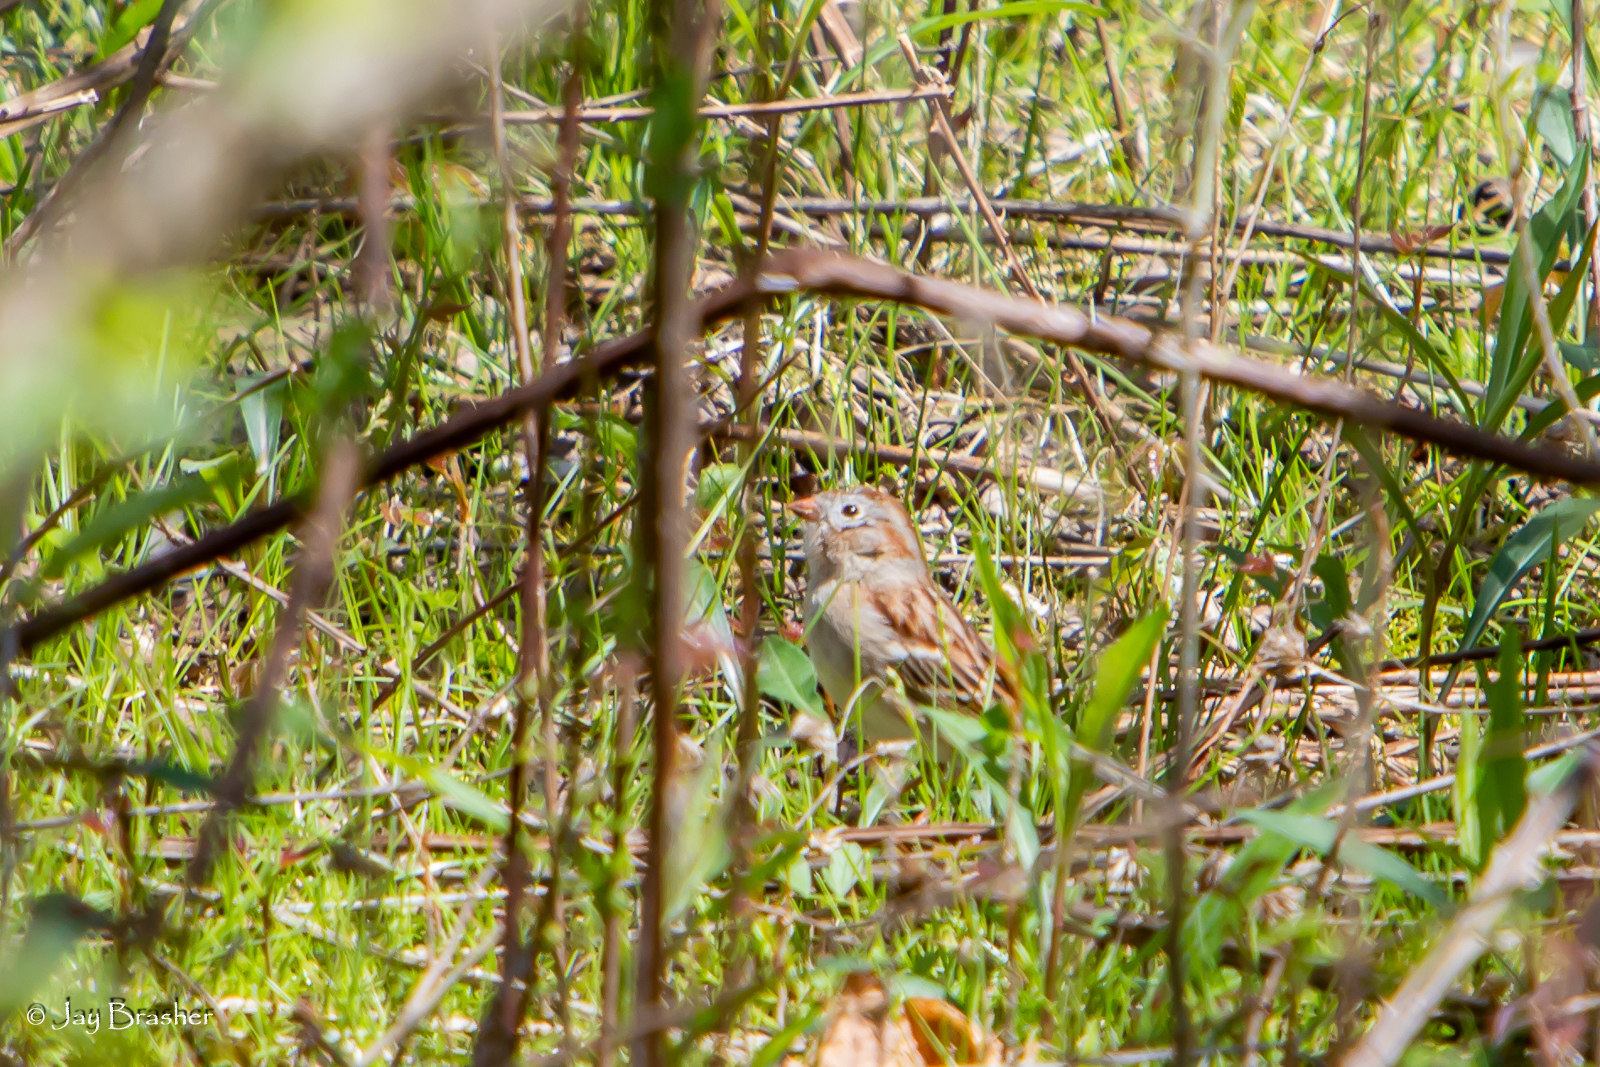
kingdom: Animalia
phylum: Chordata
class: Aves
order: Passeriformes
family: Passerellidae
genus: Spizella
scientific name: Spizella pusilla
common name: Field sparrow
